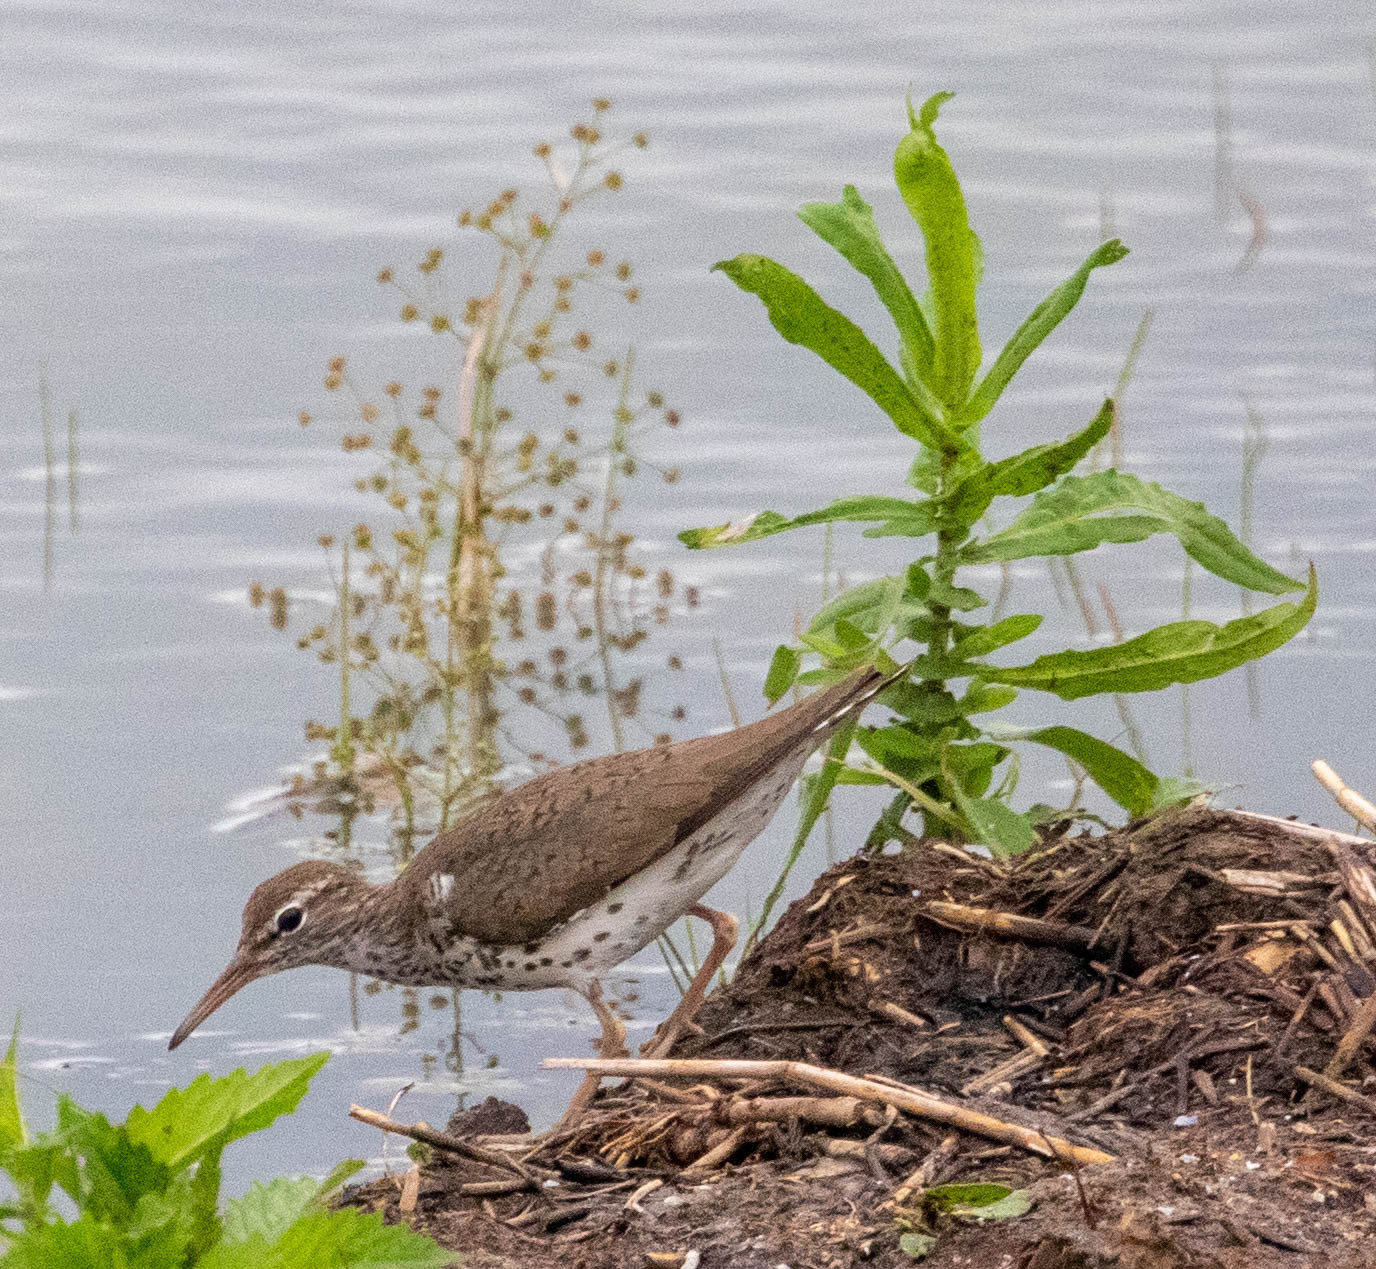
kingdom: Animalia
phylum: Chordata
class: Aves
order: Charadriiformes
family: Scolopacidae
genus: Actitis
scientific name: Actitis macularius
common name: Spotted sandpiper
